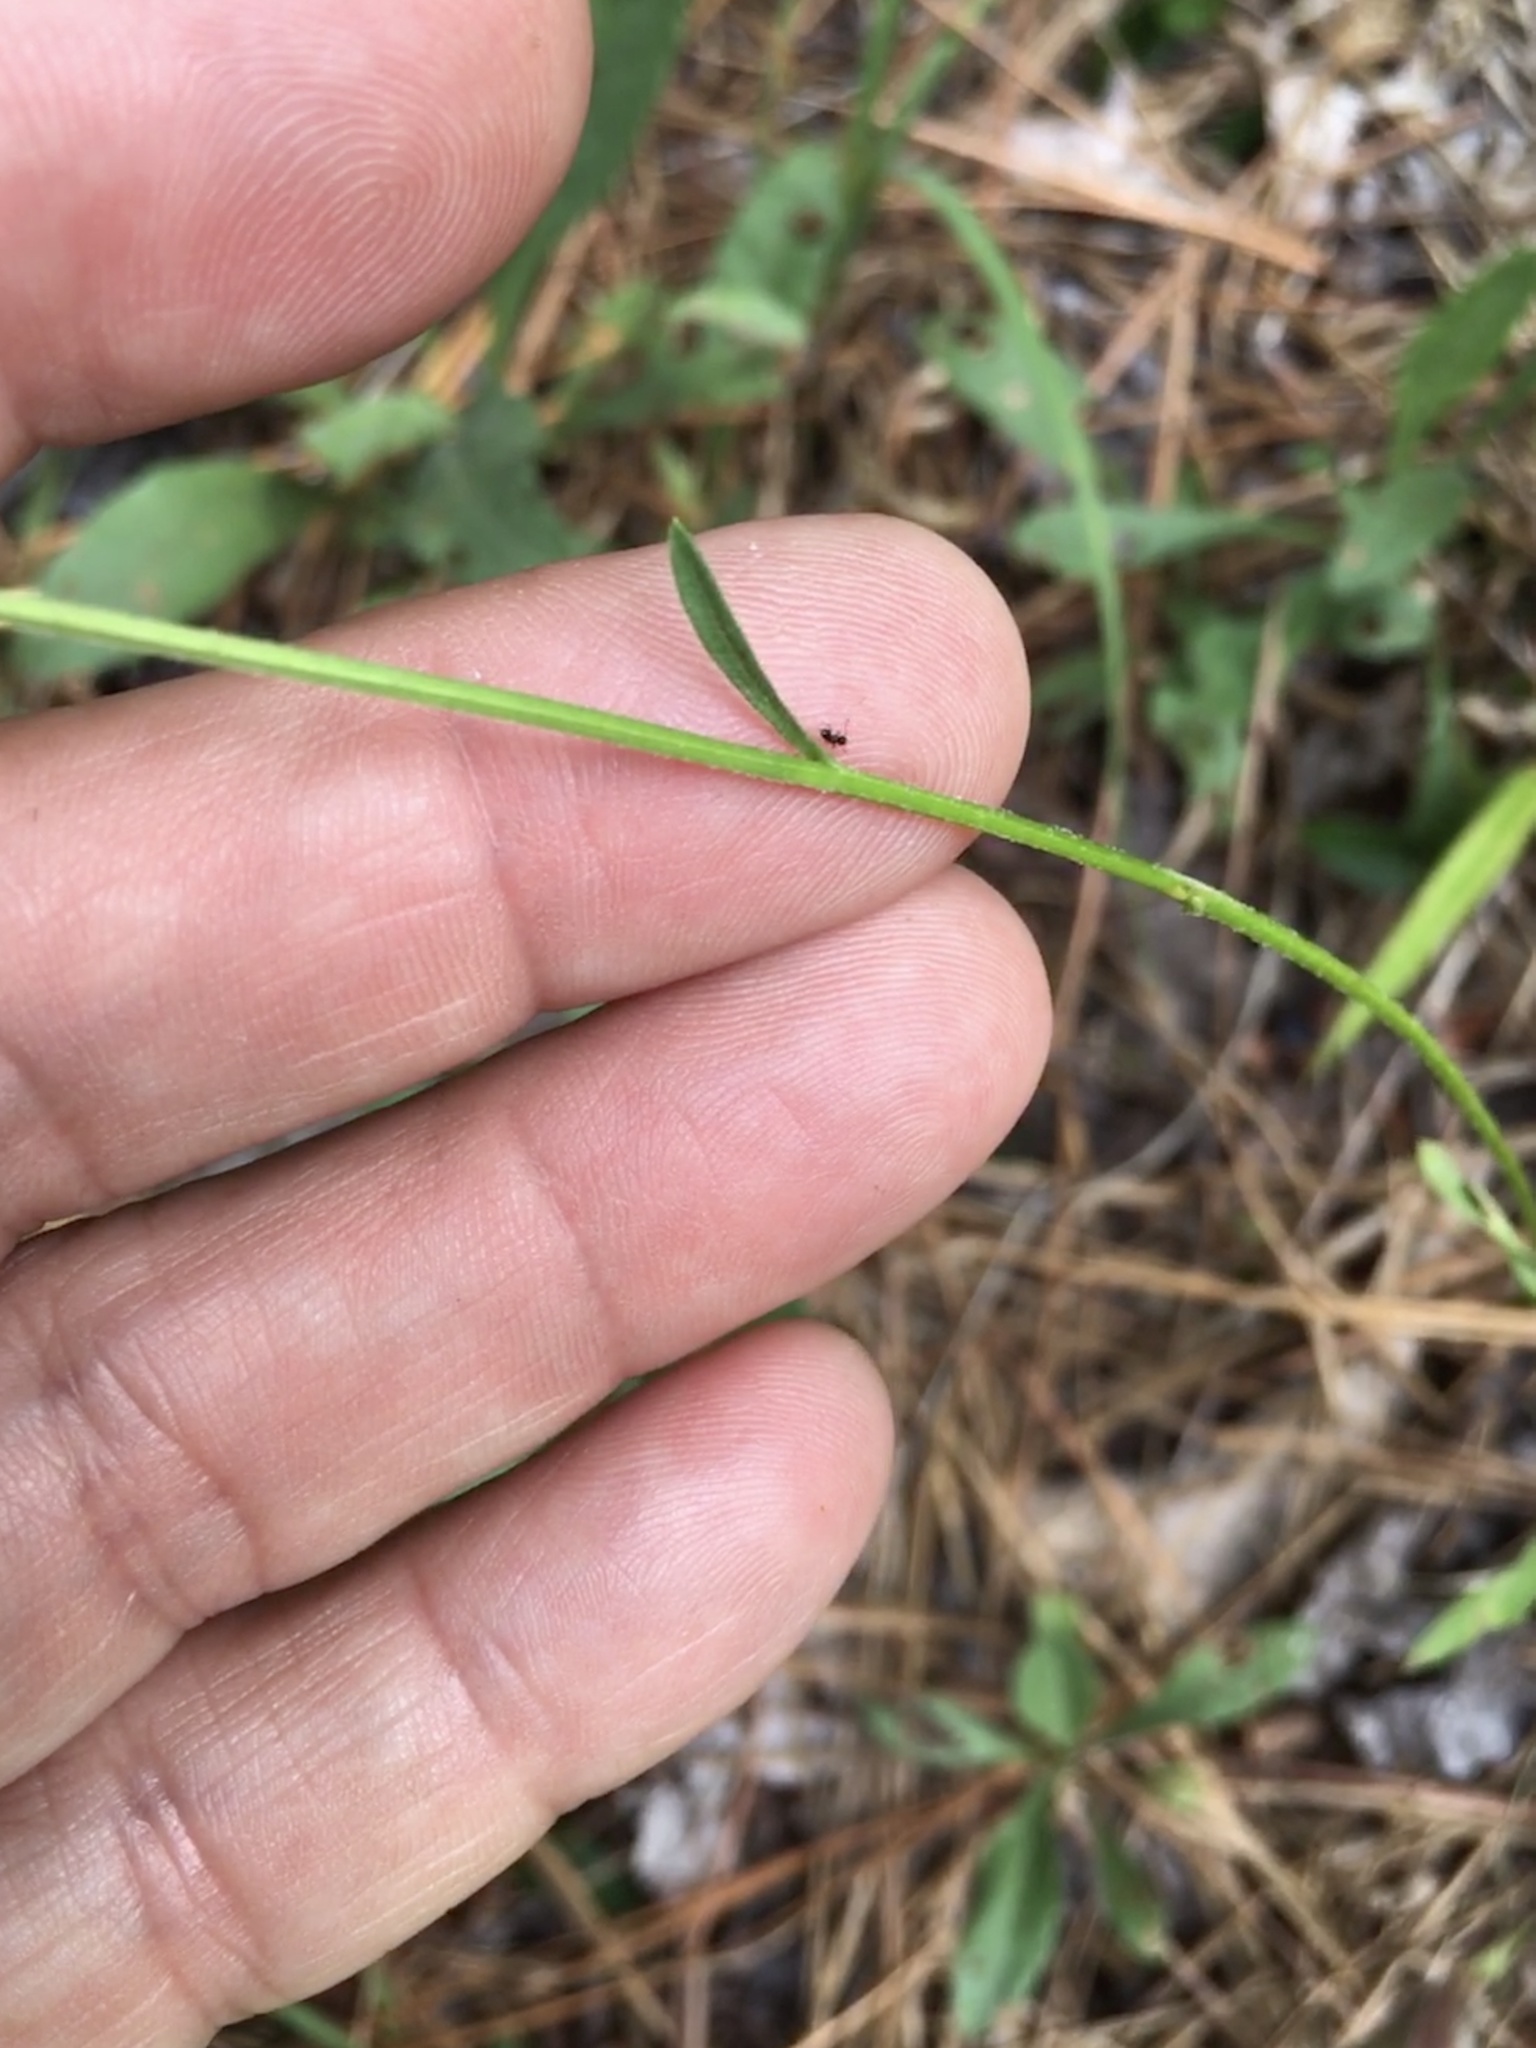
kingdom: Plantae
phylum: Tracheophyta
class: Magnoliopsida
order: Asterales
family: Asteraceae
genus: Erigeron
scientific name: Erigeron strigosus
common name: Common eastern fleabane
